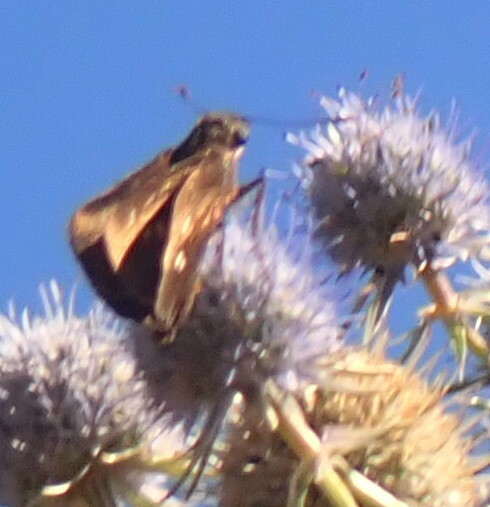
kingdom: Animalia
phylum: Arthropoda
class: Insecta
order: Lepidoptera
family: Hesperiidae
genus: Oligoria
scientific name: Oligoria maculata
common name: Twin-spot skipper
